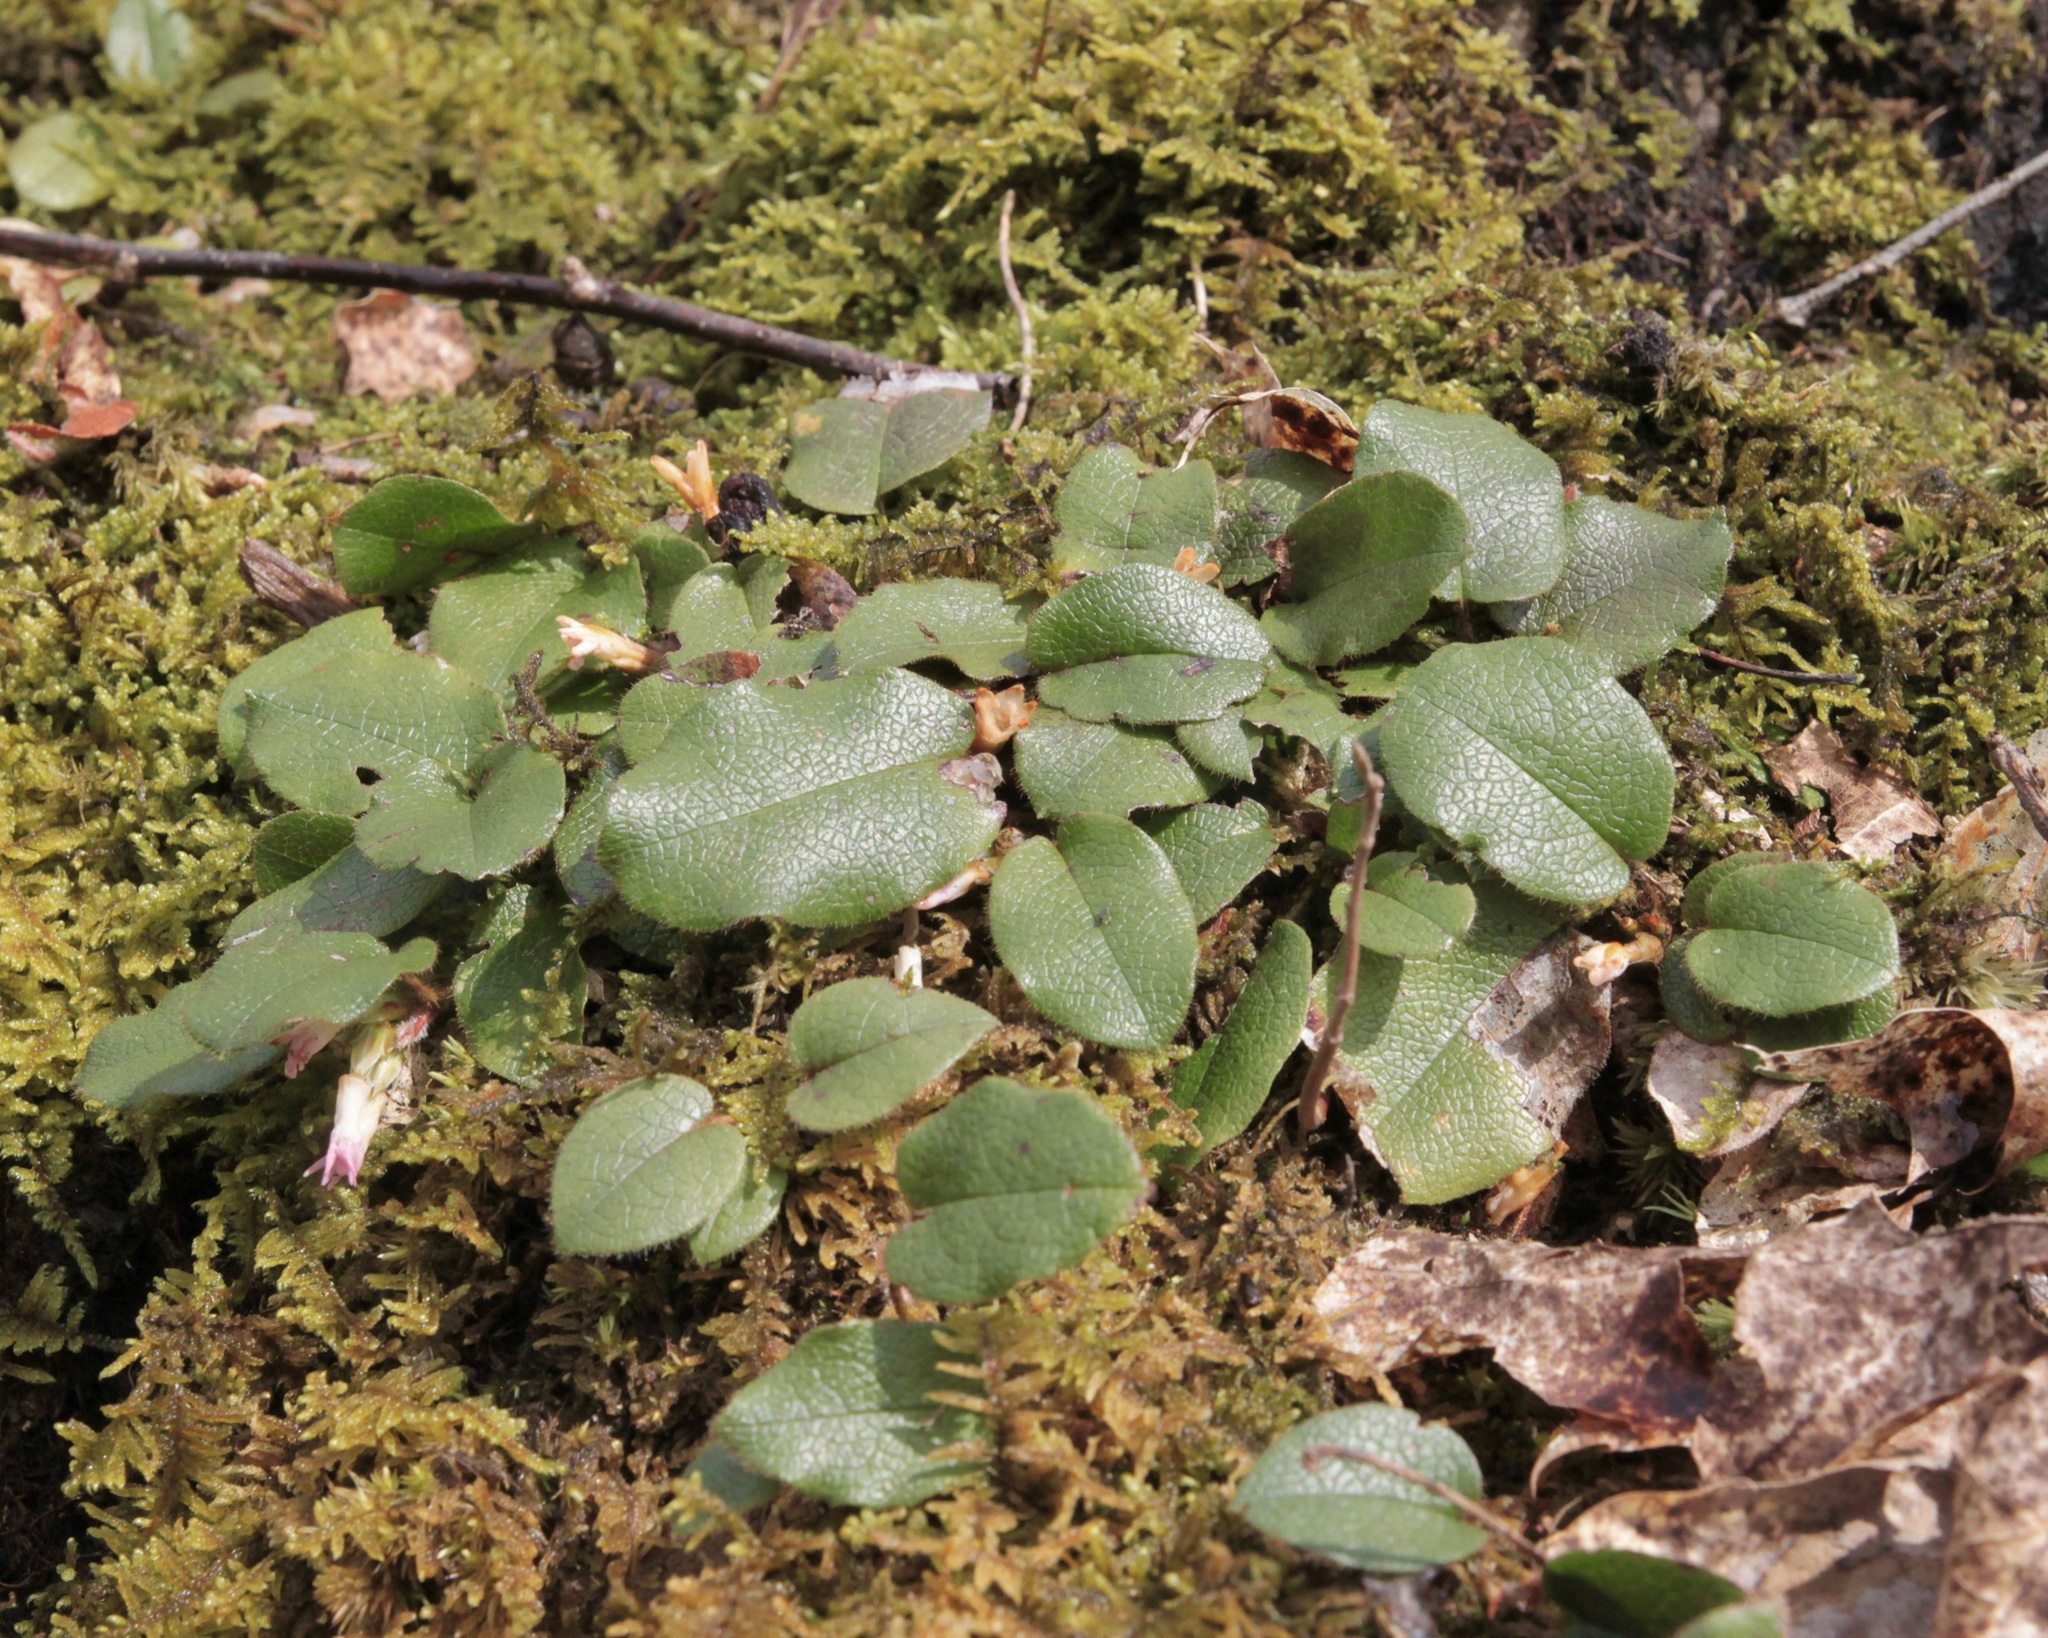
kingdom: Plantae
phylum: Tracheophyta
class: Magnoliopsida
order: Ericales
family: Ericaceae
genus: Epigaea
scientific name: Epigaea repens
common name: Gravelroot
